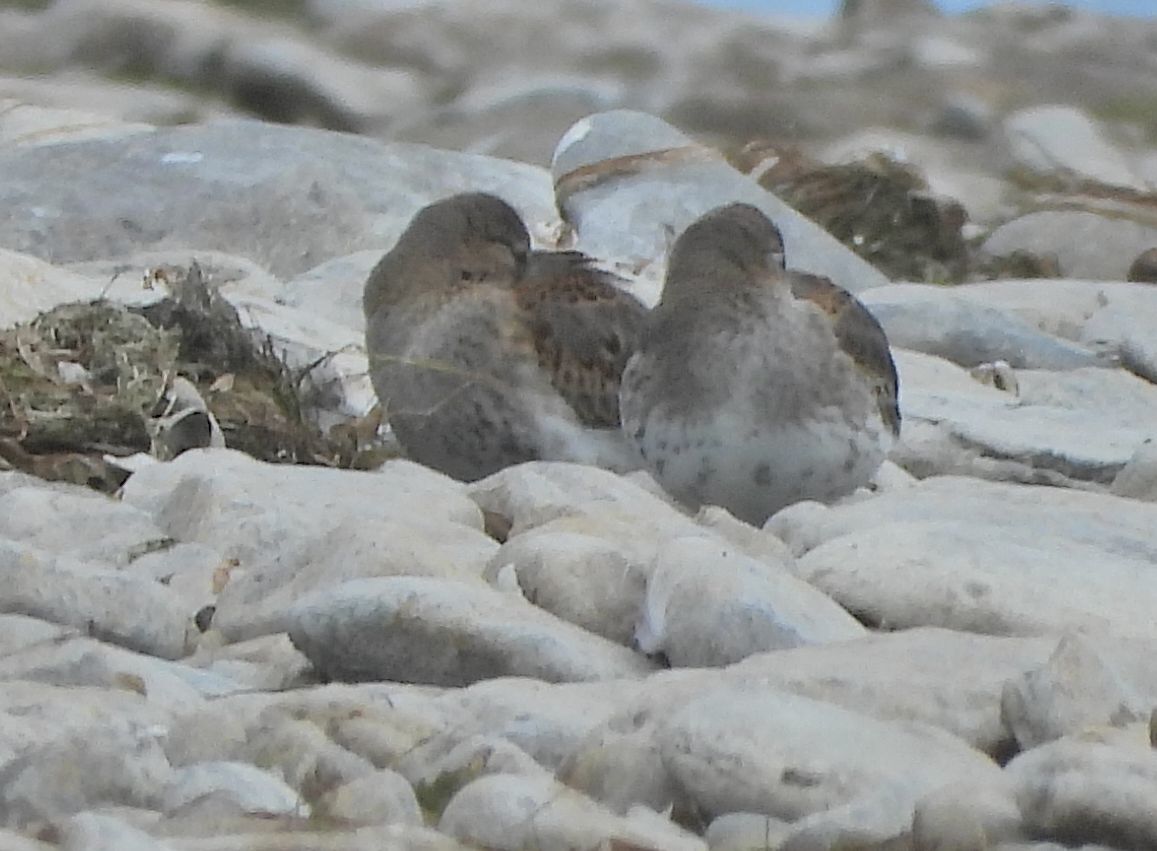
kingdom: Animalia
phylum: Chordata
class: Aves
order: Charadriiformes
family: Scolopacidae
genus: Calidris
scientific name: Calidris alpina
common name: Dunlin
